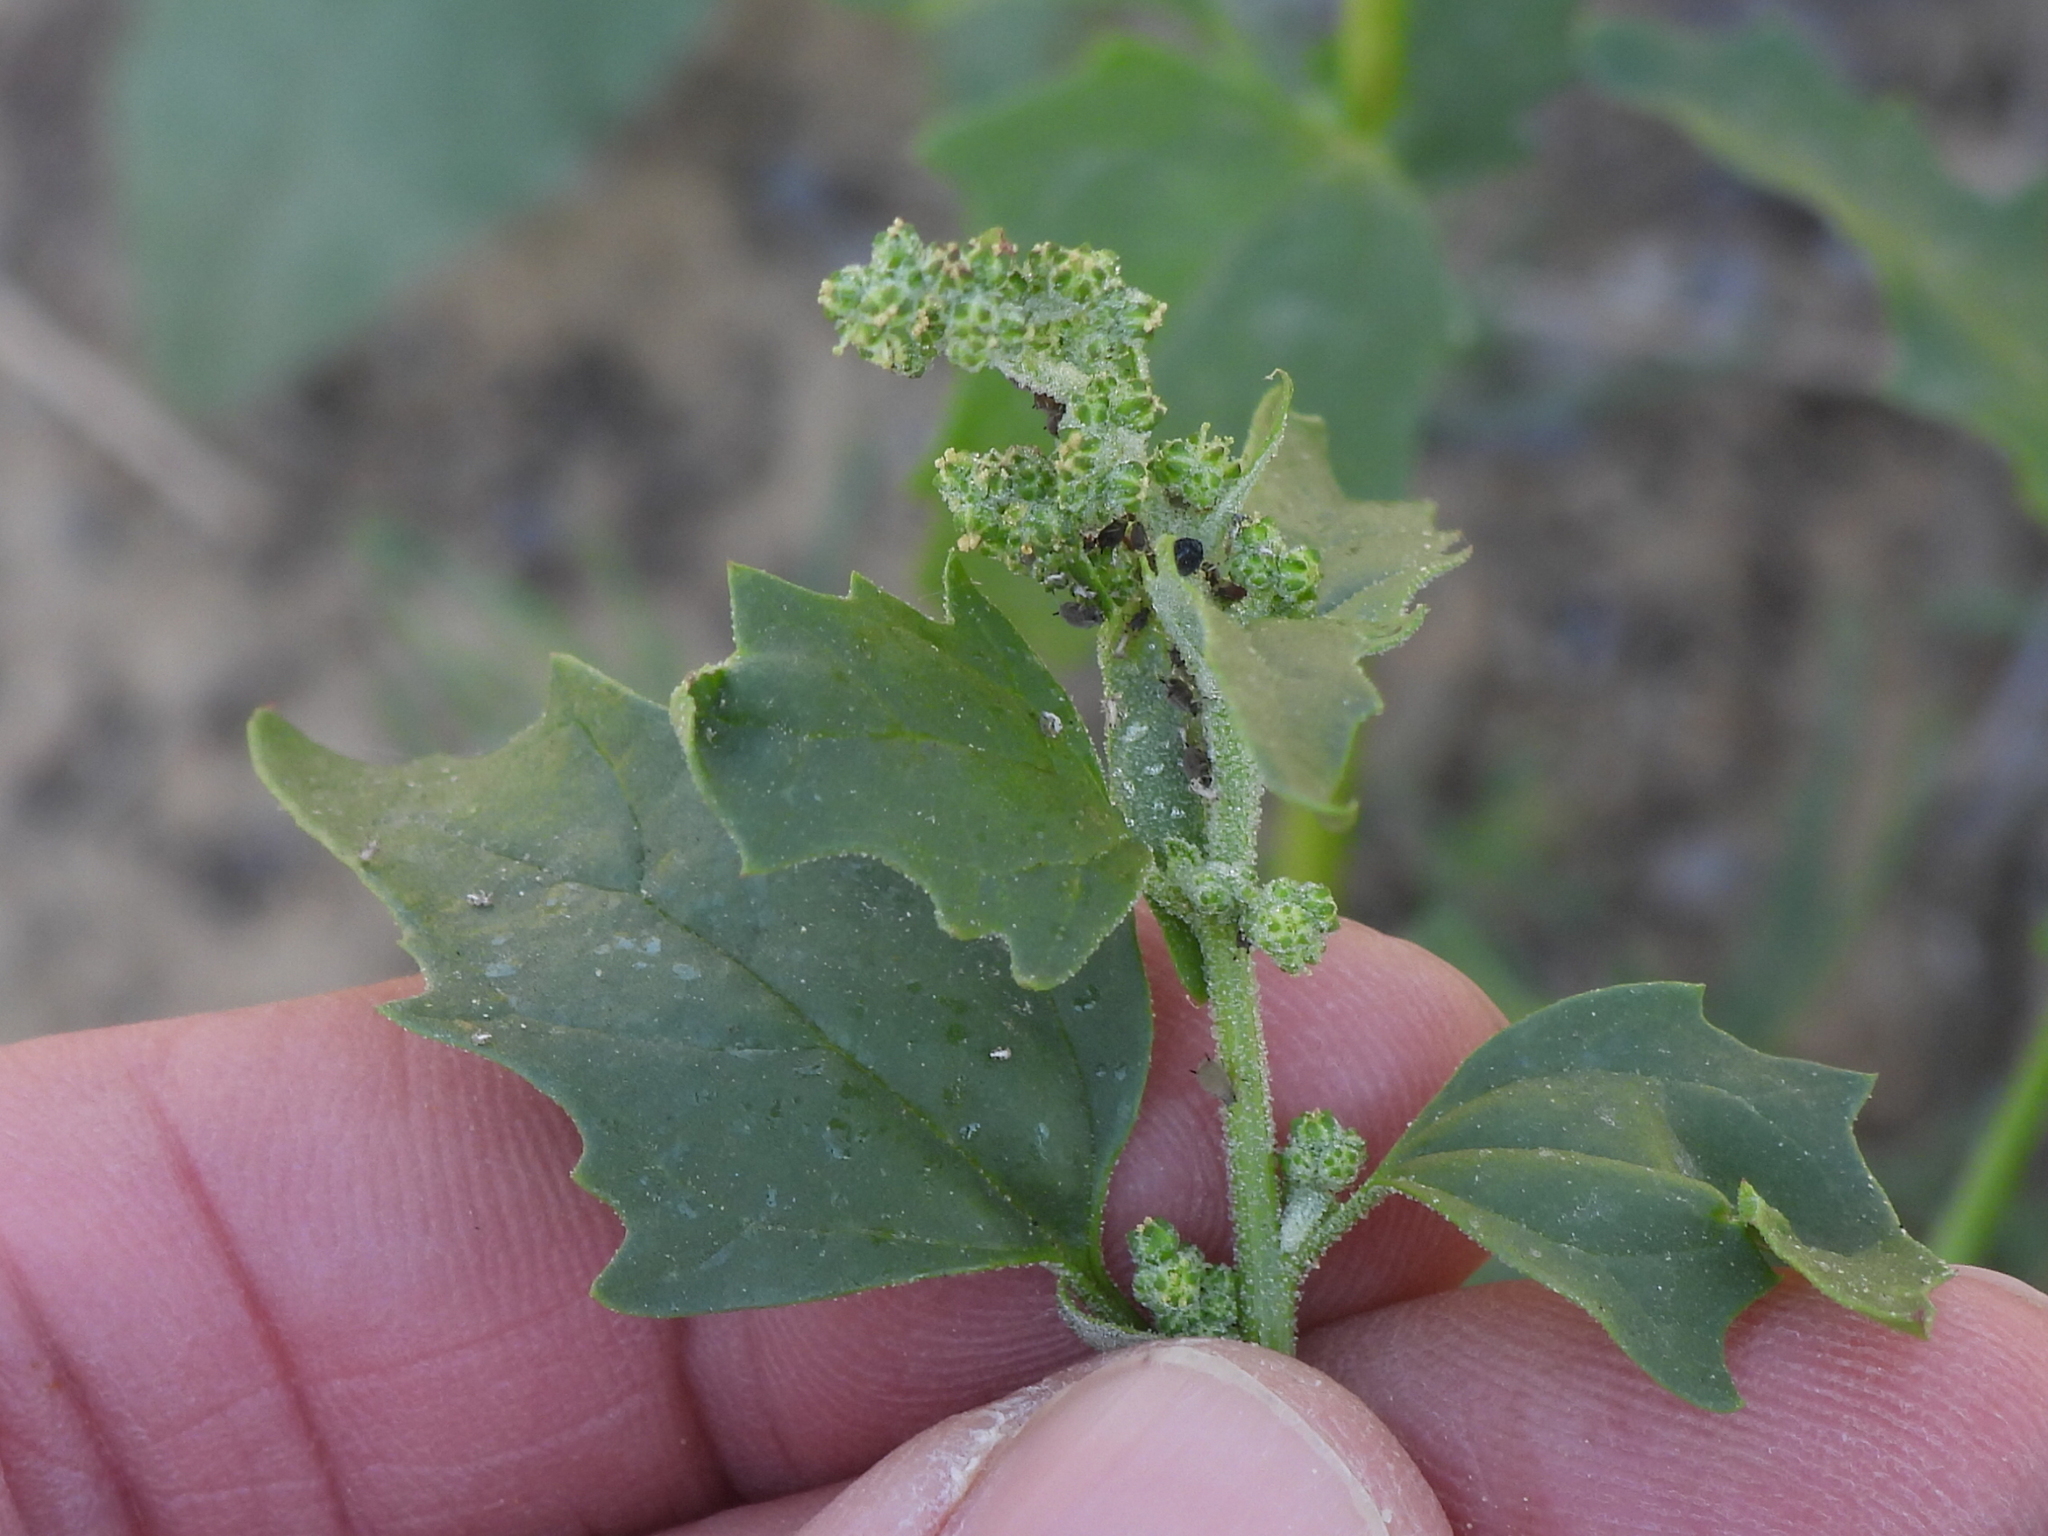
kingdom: Plantae
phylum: Tracheophyta
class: Magnoliopsida
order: Caryophyllales
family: Amaranthaceae
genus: Chenopodiastrum
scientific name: Chenopodiastrum murale
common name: Sowbane
